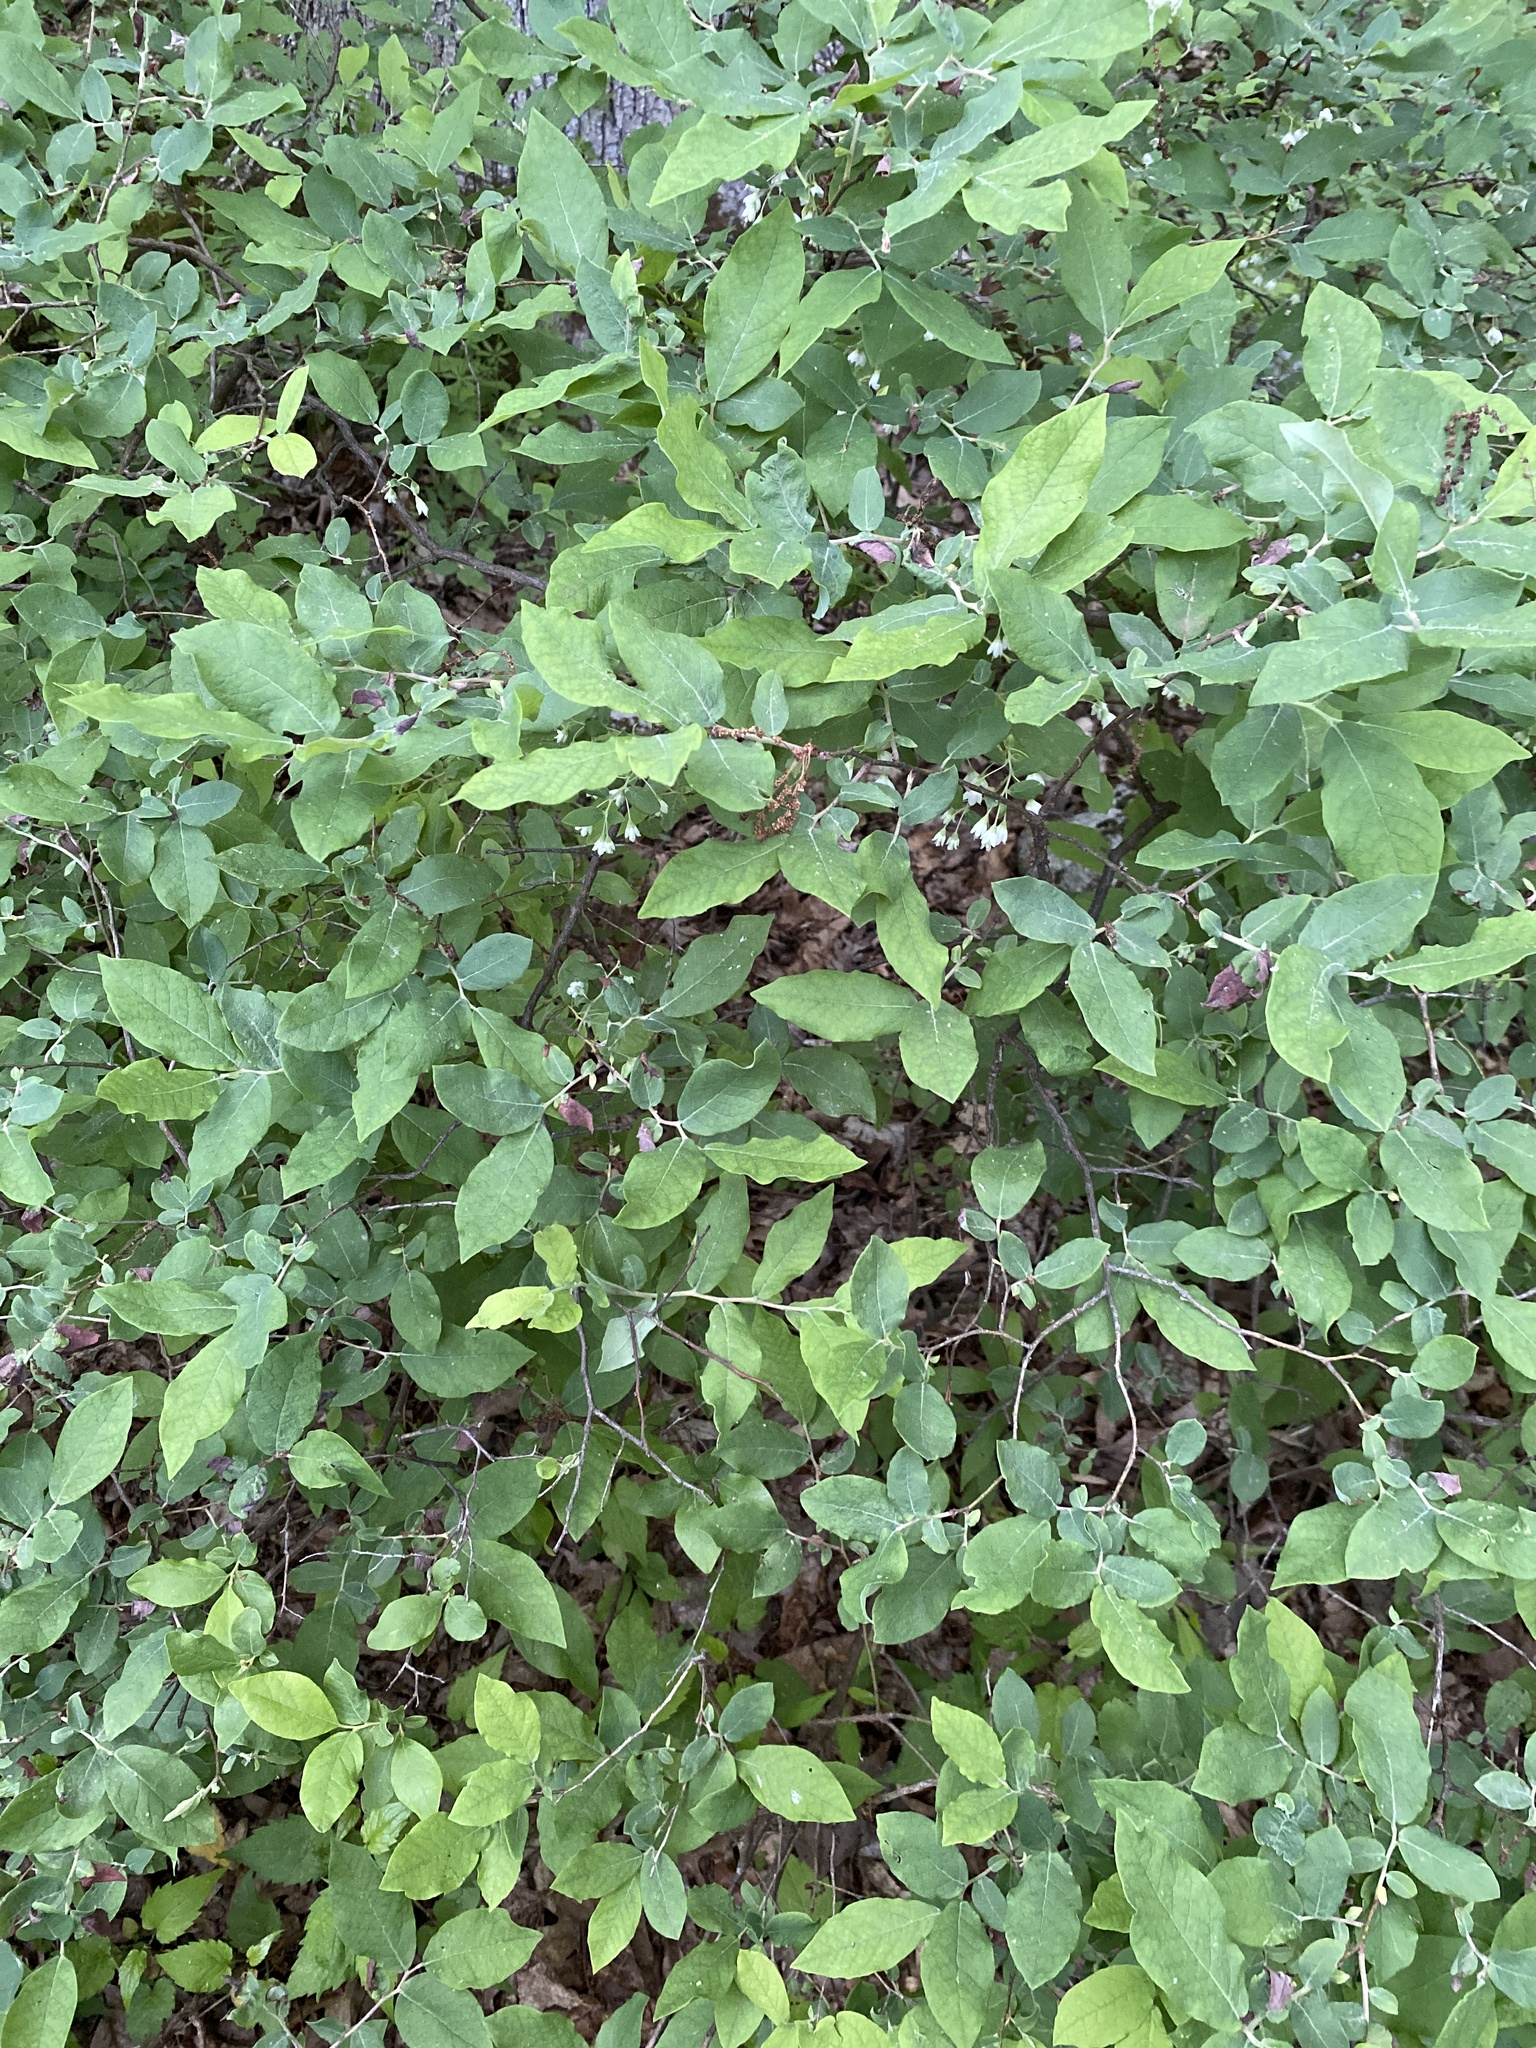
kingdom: Plantae
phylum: Tracheophyta
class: Magnoliopsida
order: Ericales
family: Ericaceae
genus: Vaccinium
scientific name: Vaccinium stamineum
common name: Deerberry
